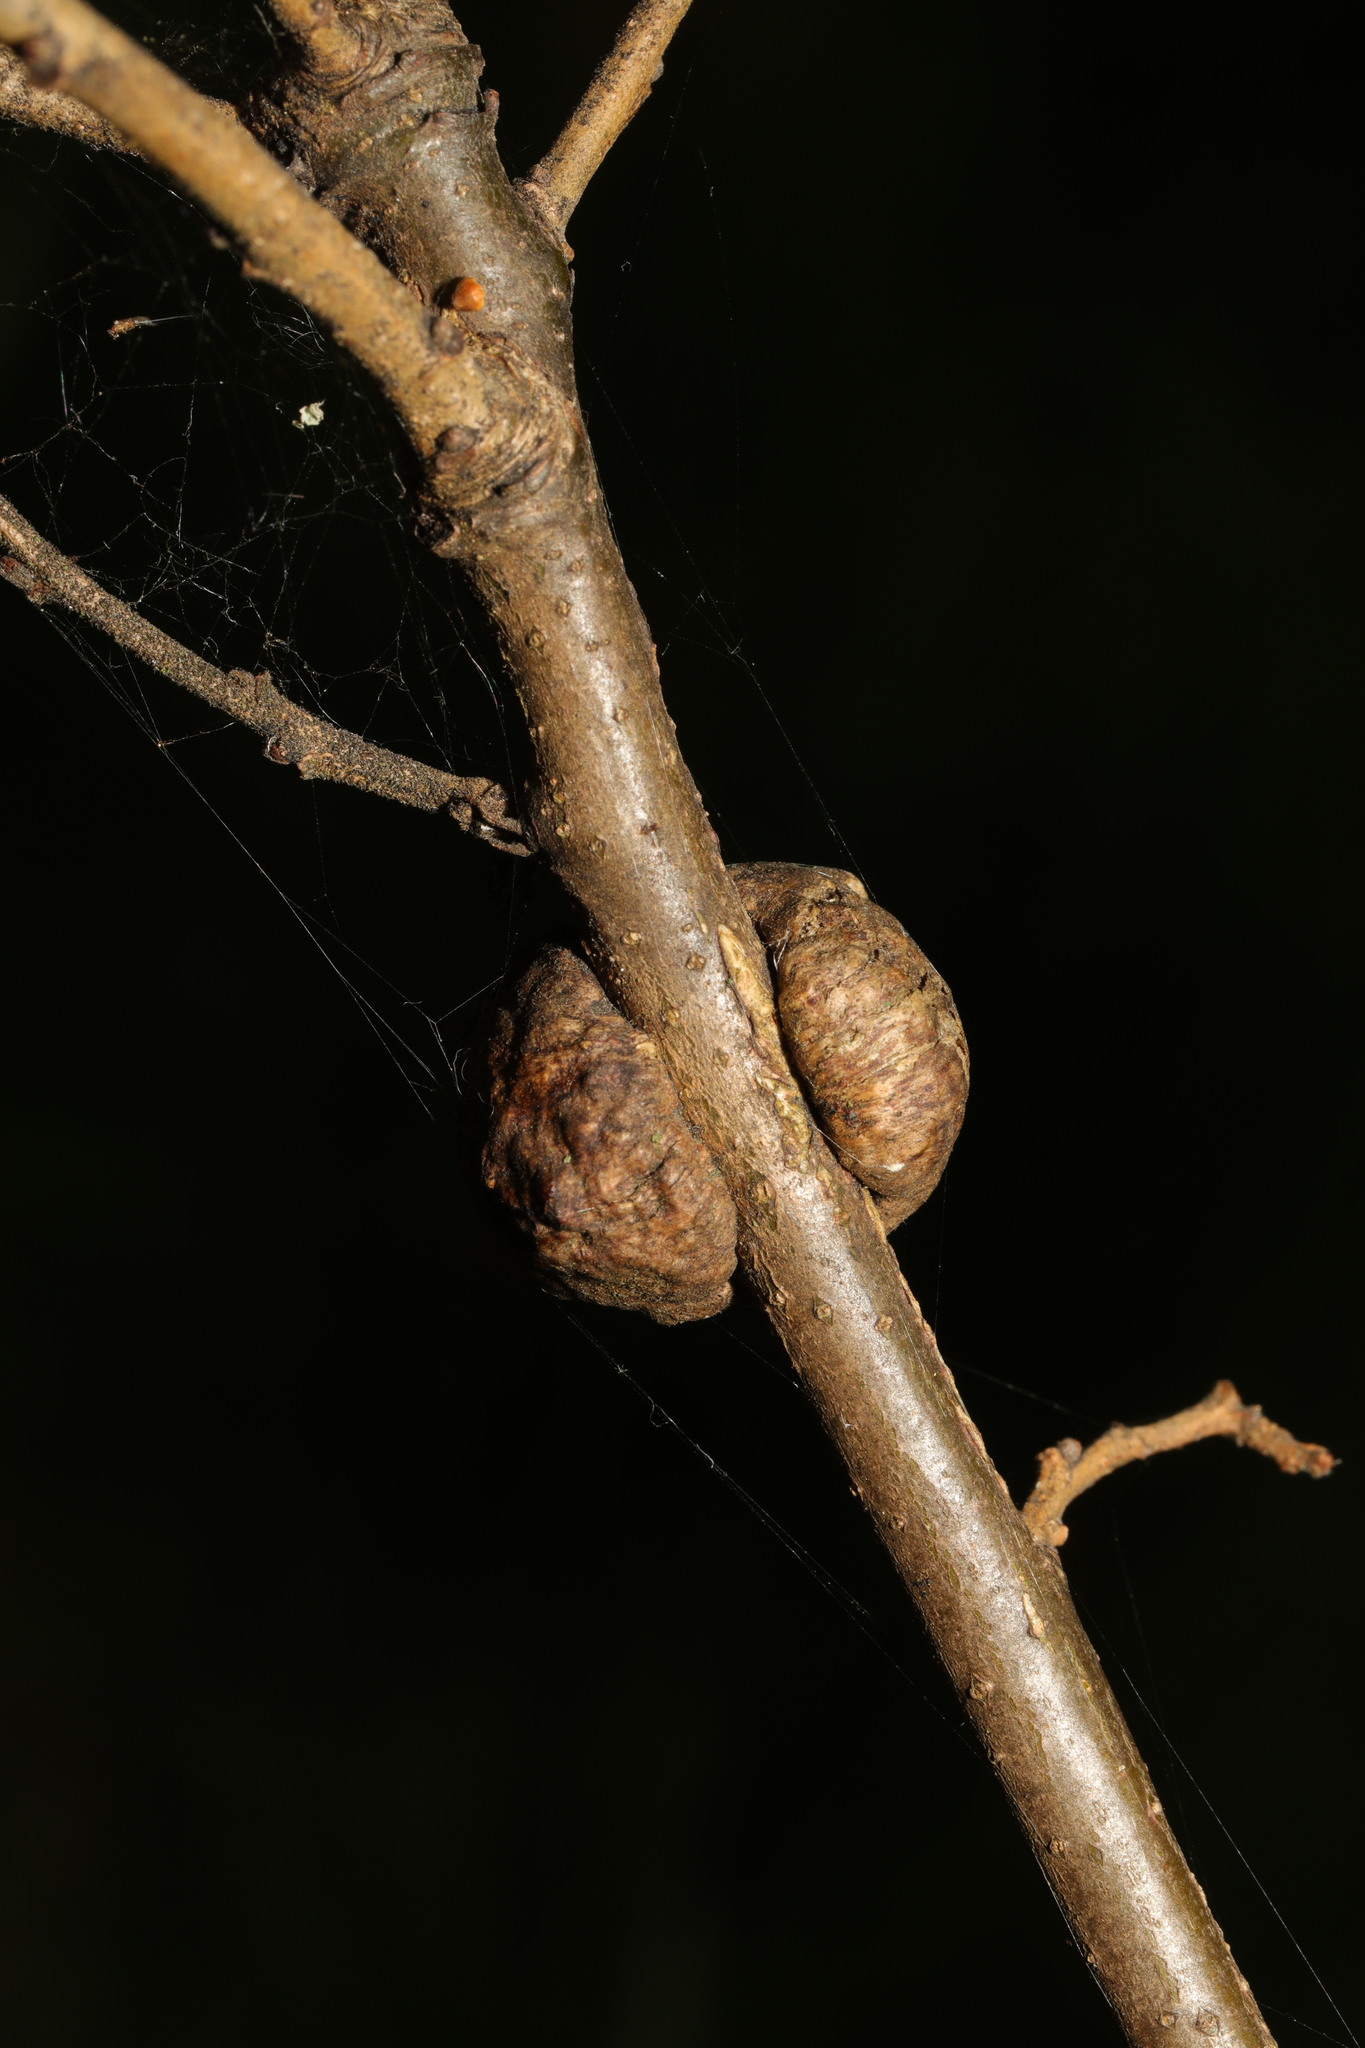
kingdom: Animalia
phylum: Arthropoda
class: Insecta
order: Hymenoptera
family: Cynipidae
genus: Aphelonyx
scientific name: Aphelonyx cerricola
